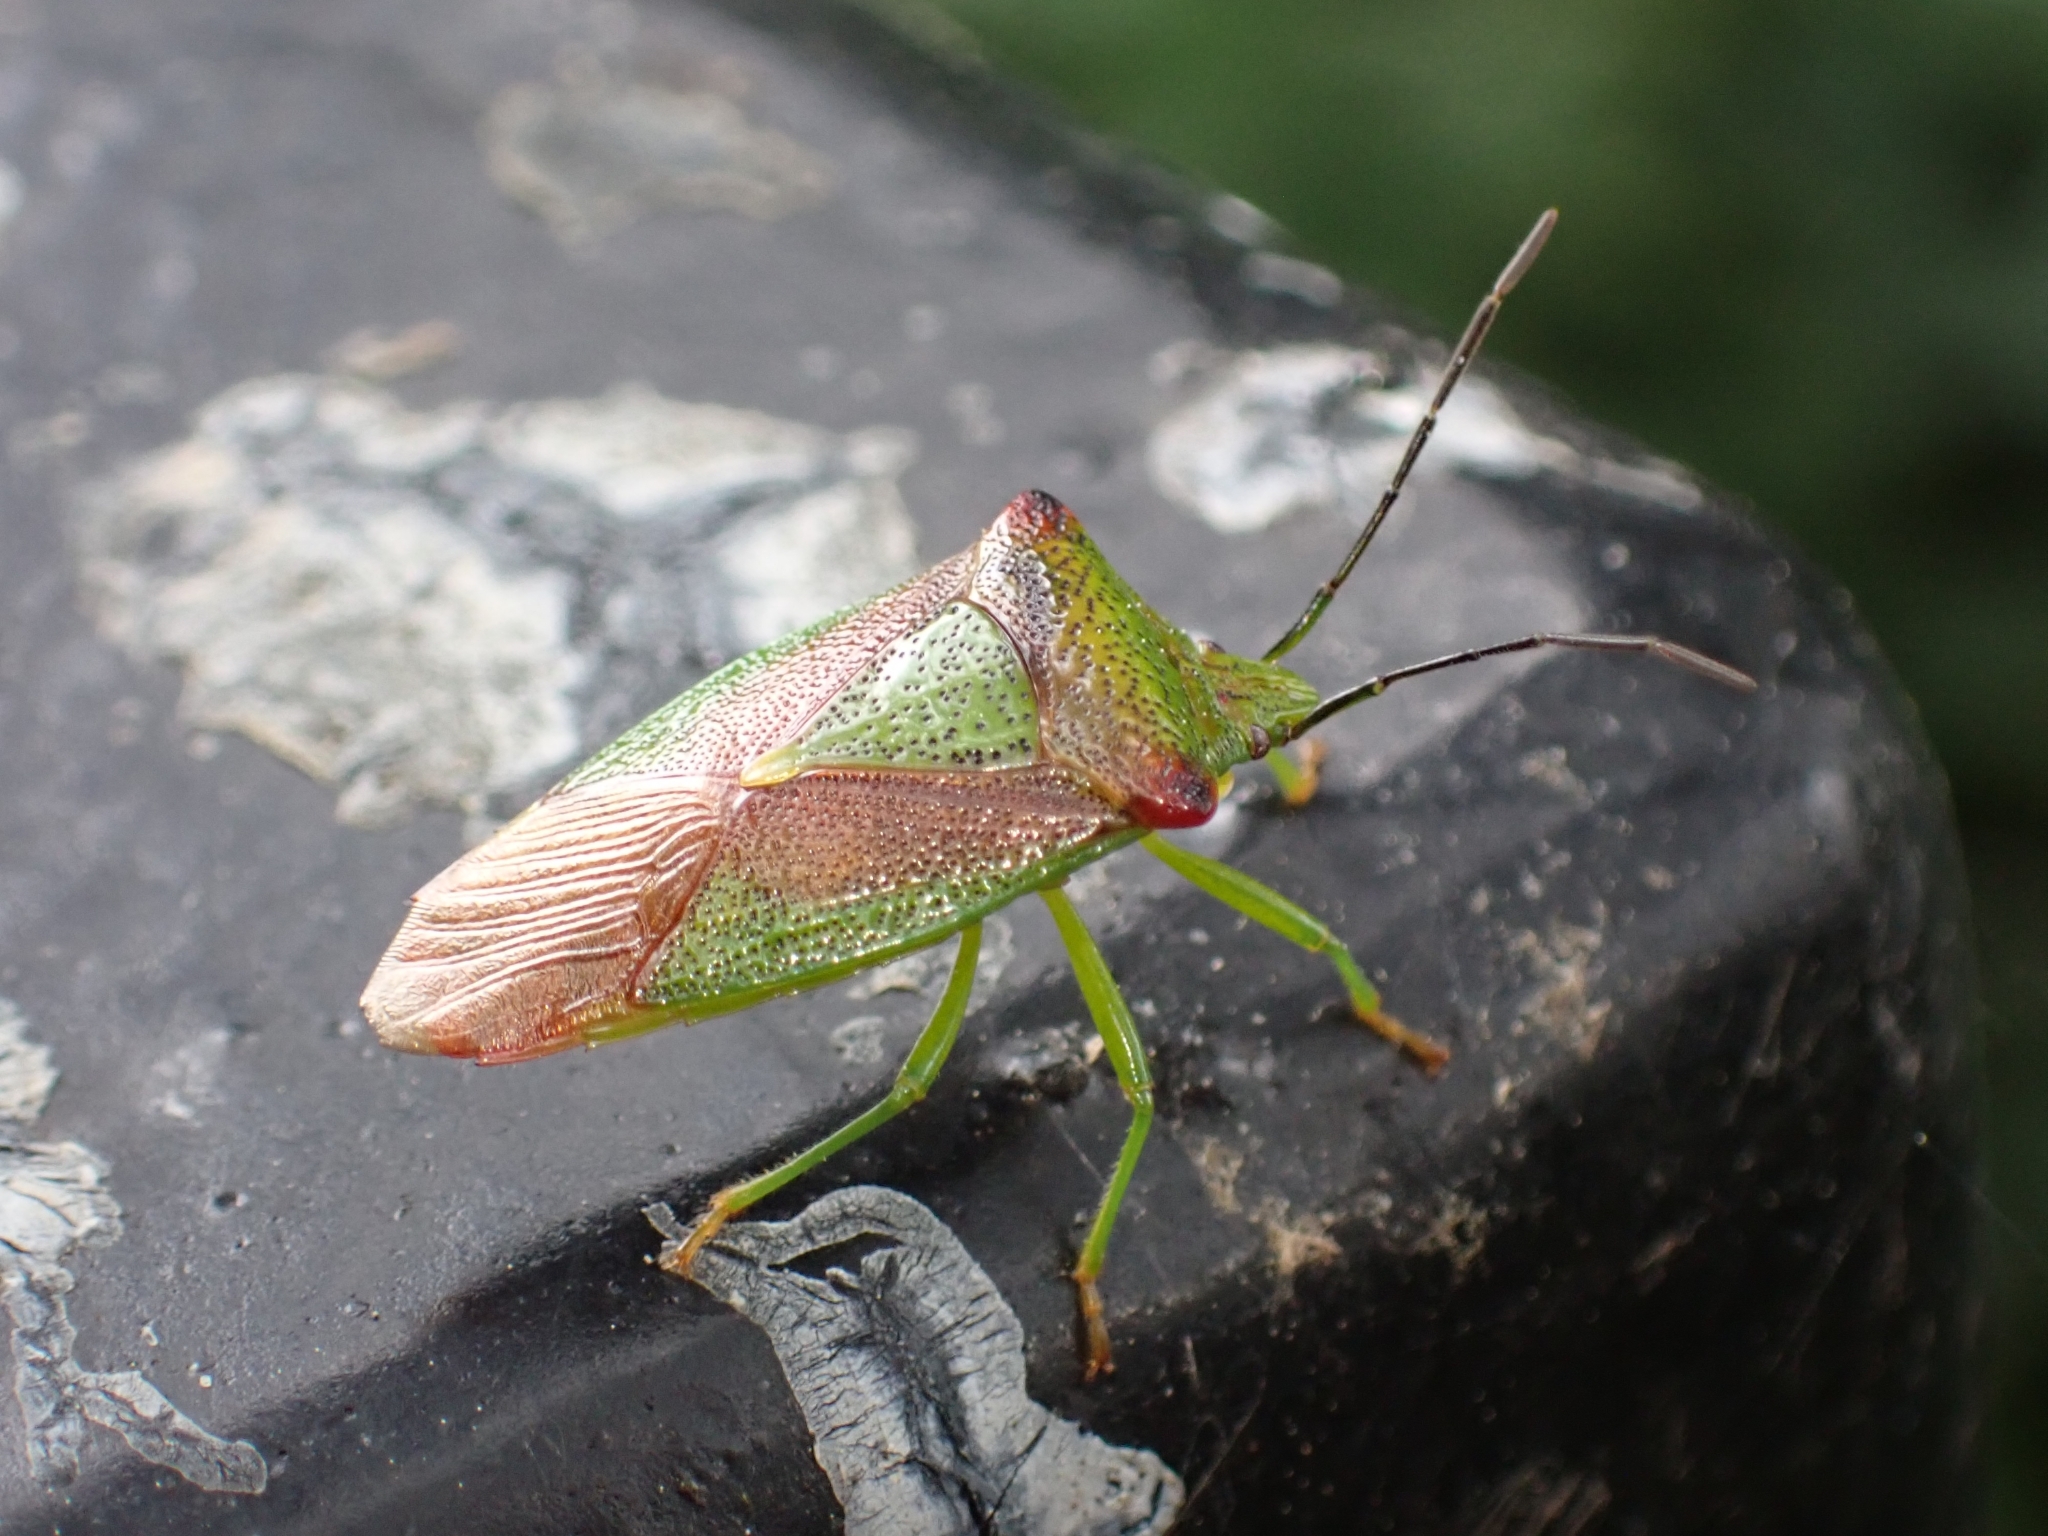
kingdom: Animalia
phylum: Arthropoda
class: Insecta
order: Hemiptera
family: Acanthosomatidae
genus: Acanthosoma
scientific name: Acanthosoma haemorrhoidale
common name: Hawthorn shieldbug
